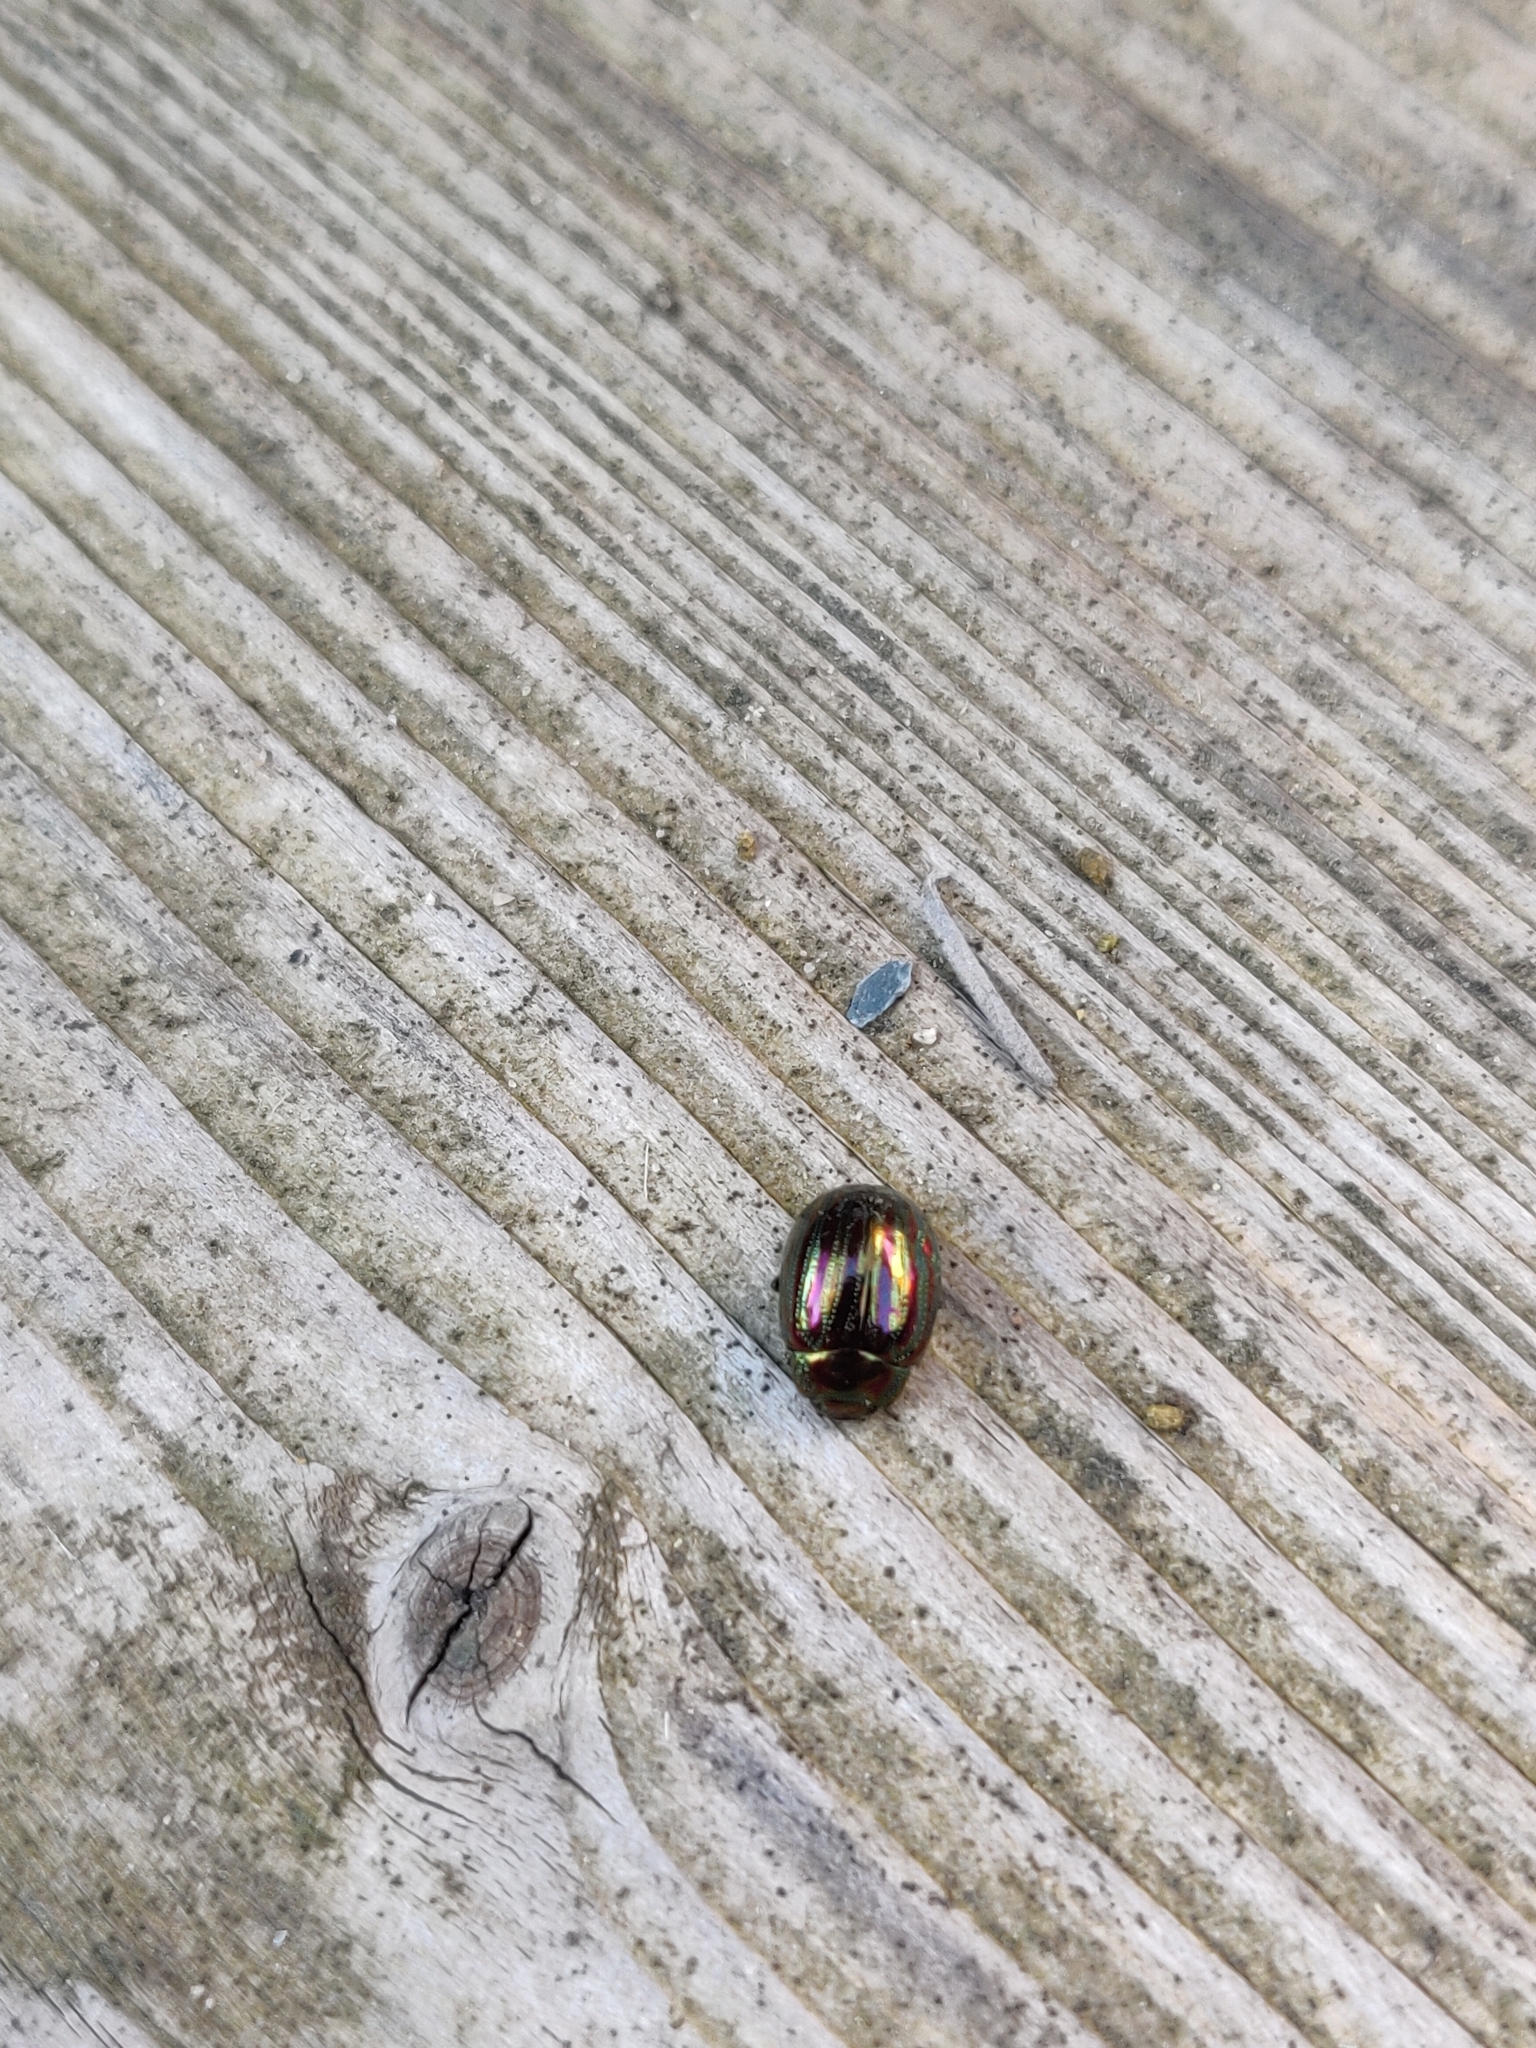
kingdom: Animalia
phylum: Arthropoda
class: Insecta
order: Coleoptera
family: Chrysomelidae
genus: Chrysolina
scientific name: Chrysolina americana
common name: Rosemary beetle
